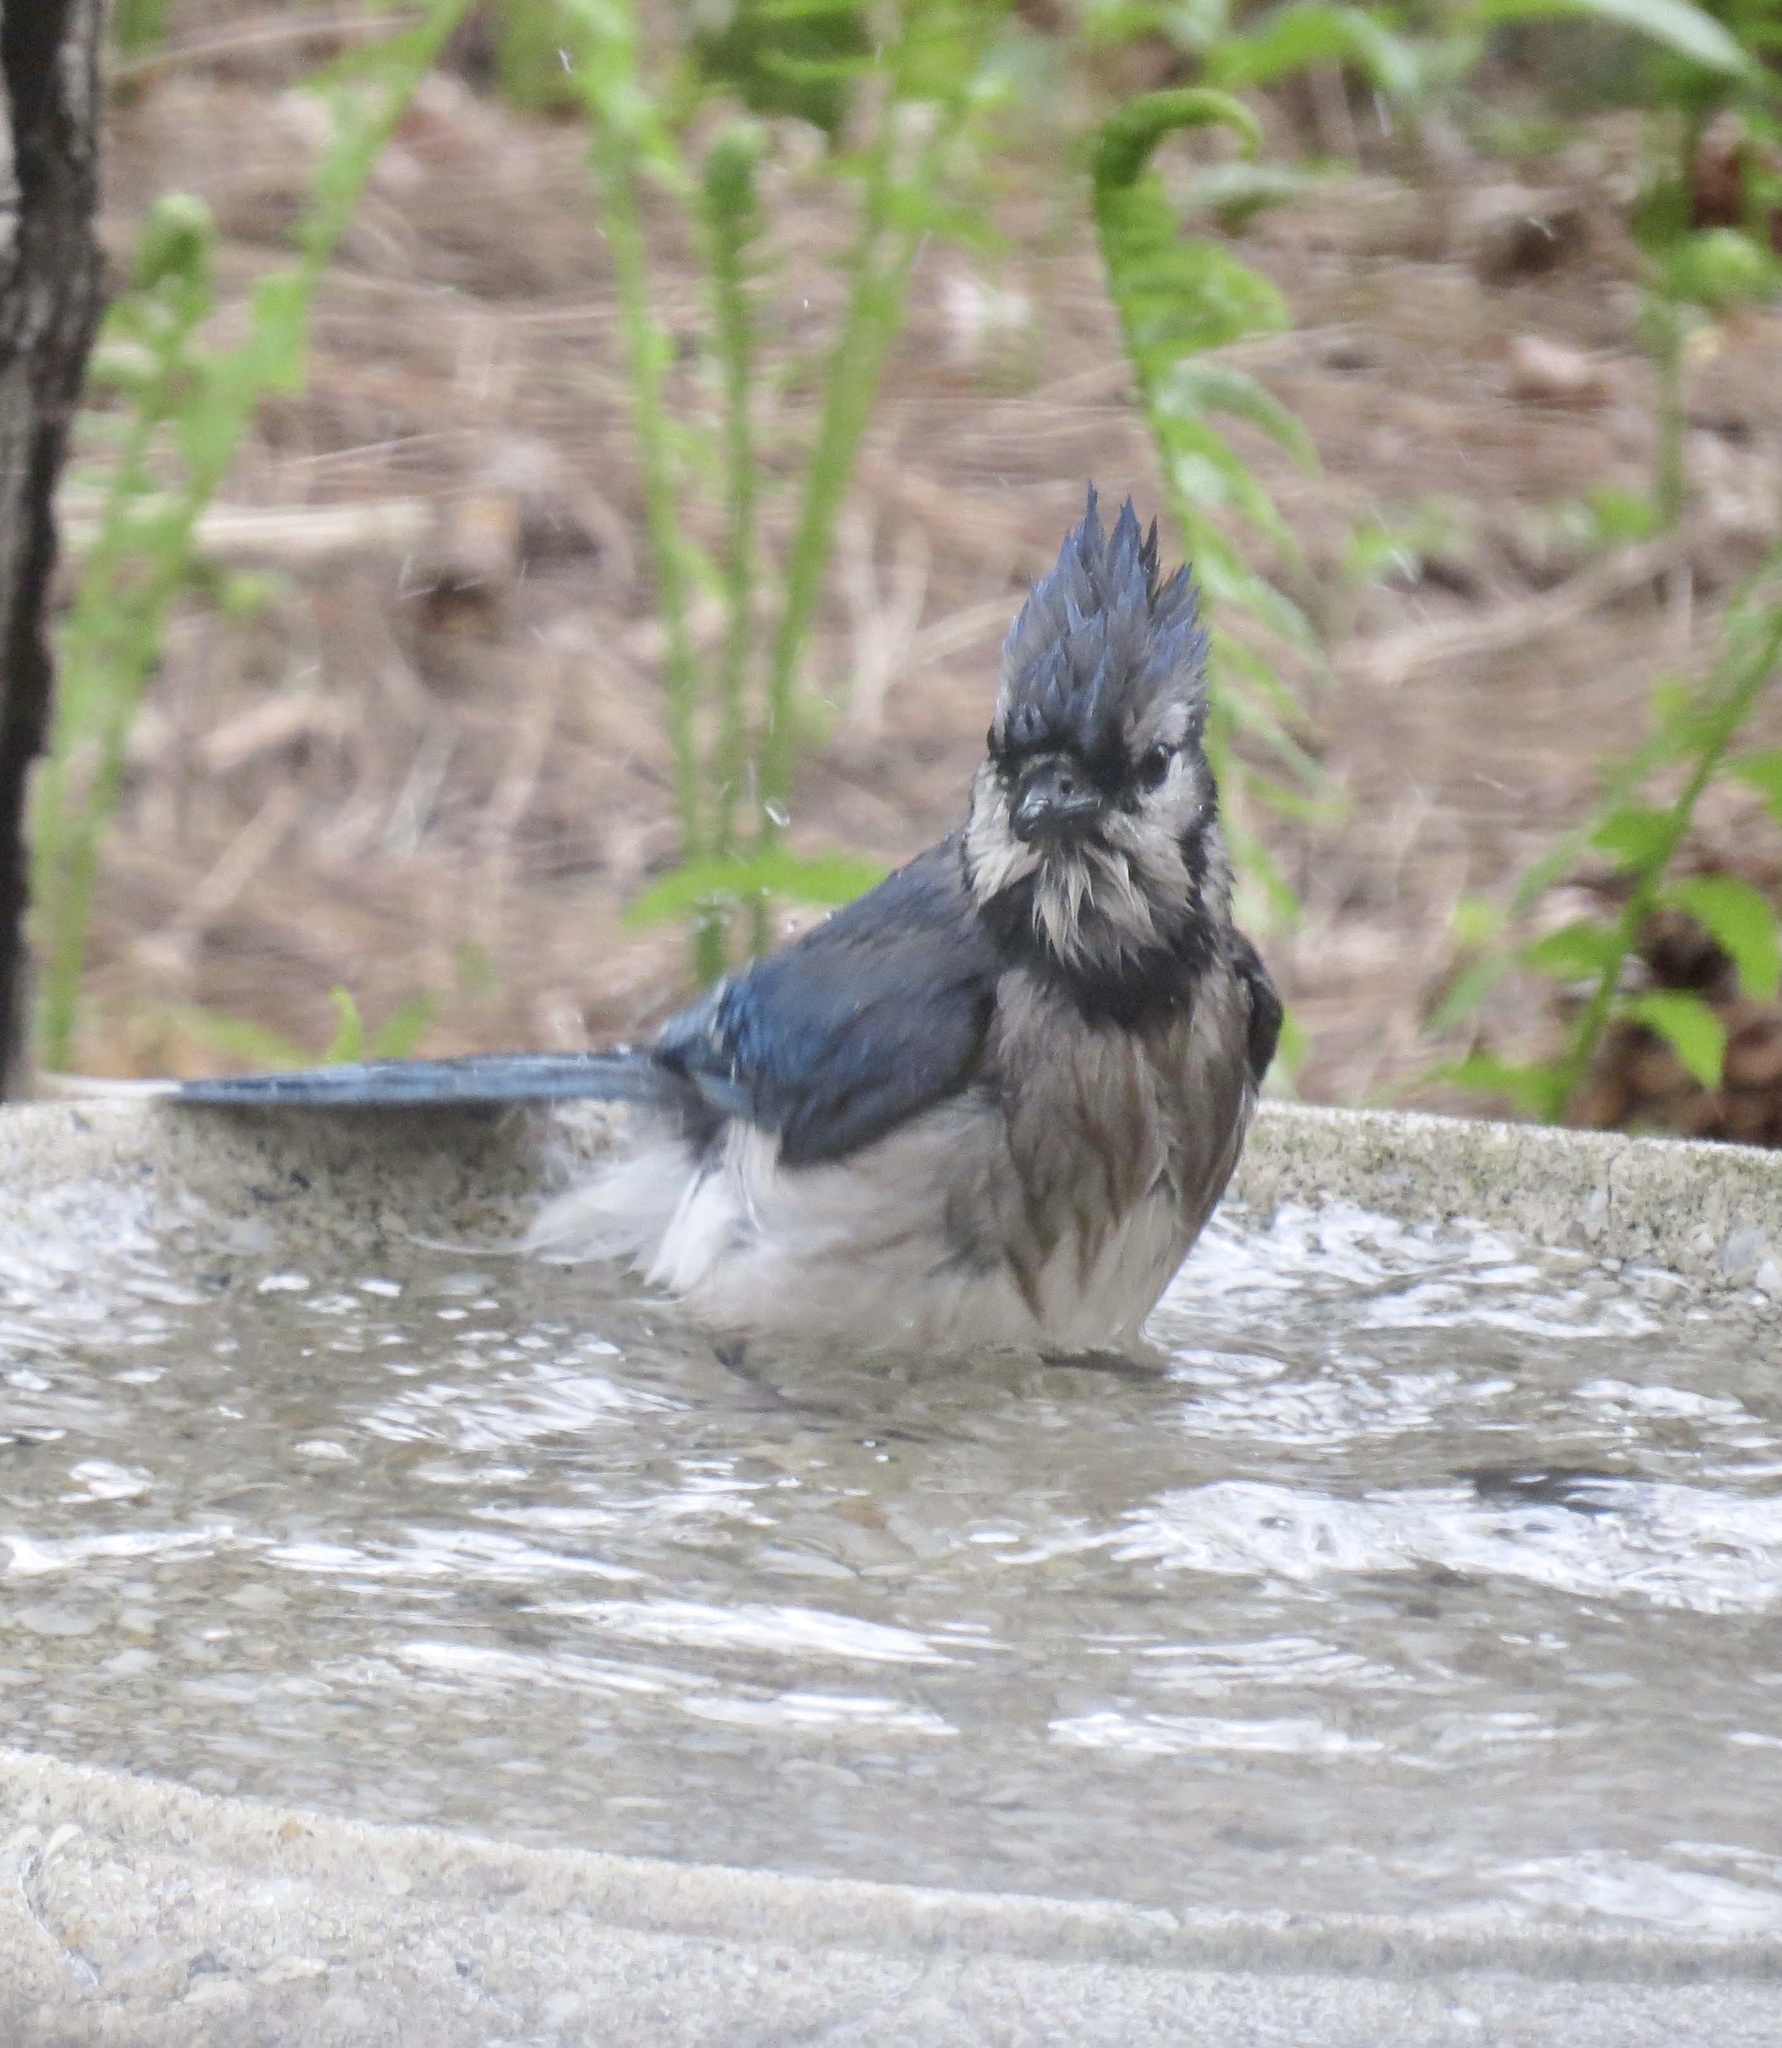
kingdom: Animalia
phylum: Chordata
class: Aves
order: Passeriformes
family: Corvidae
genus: Cyanocitta
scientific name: Cyanocitta cristata
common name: Blue jay
